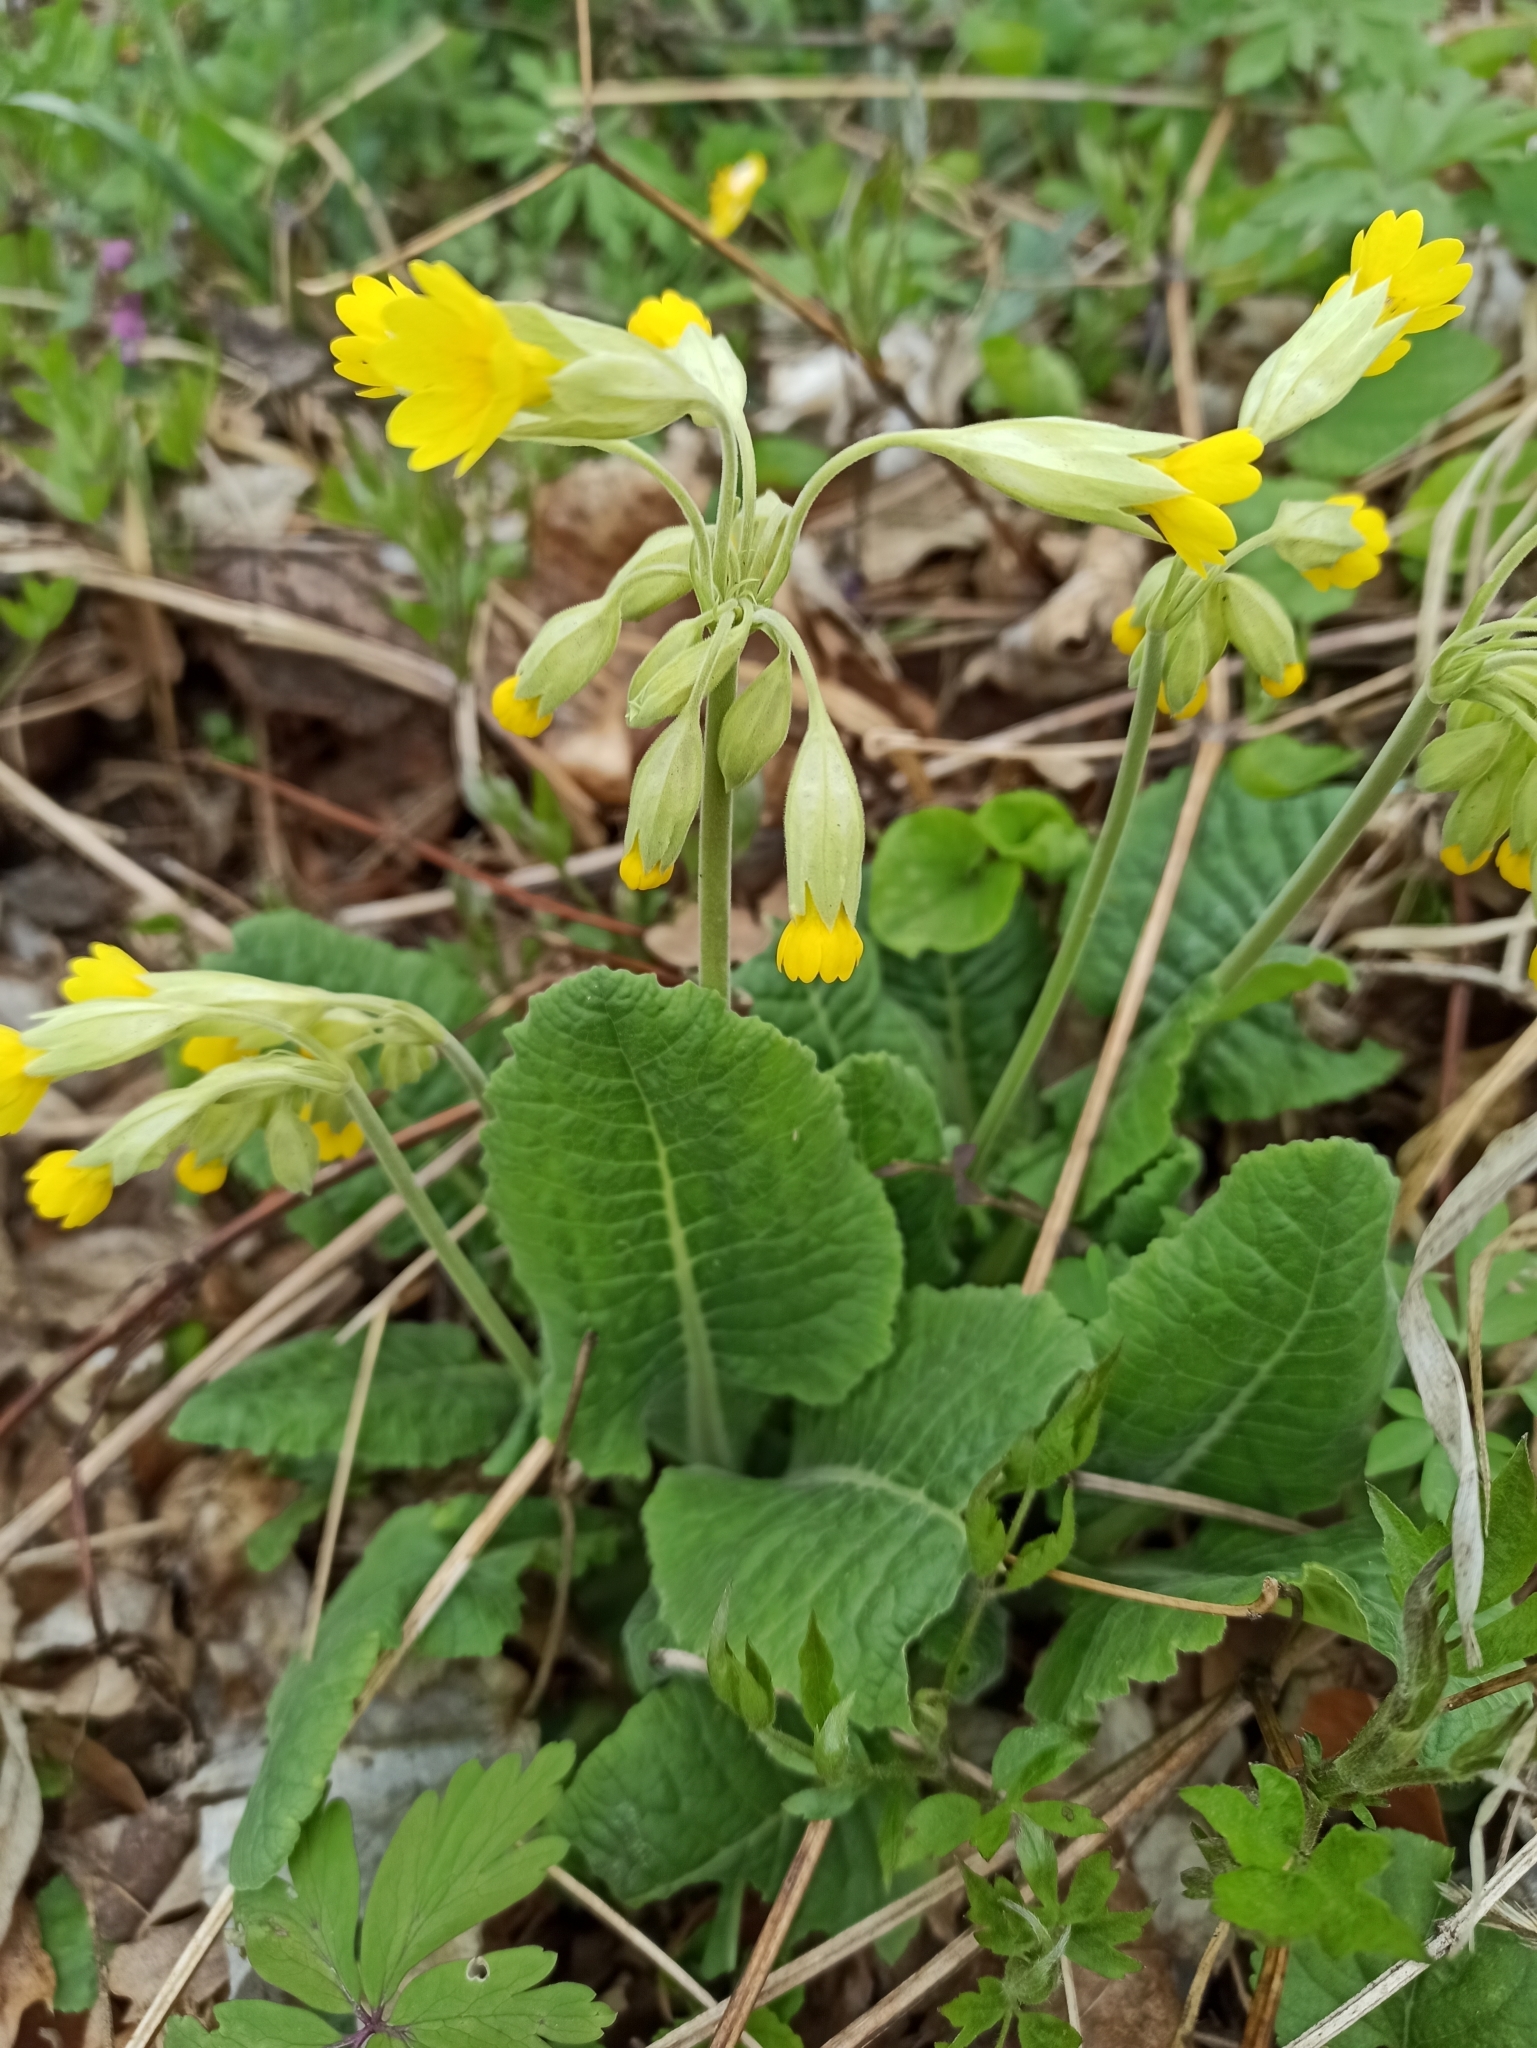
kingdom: Plantae
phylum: Tracheophyta
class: Magnoliopsida
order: Ericales
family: Primulaceae
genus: Primula
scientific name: Primula veris
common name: Cowslip
